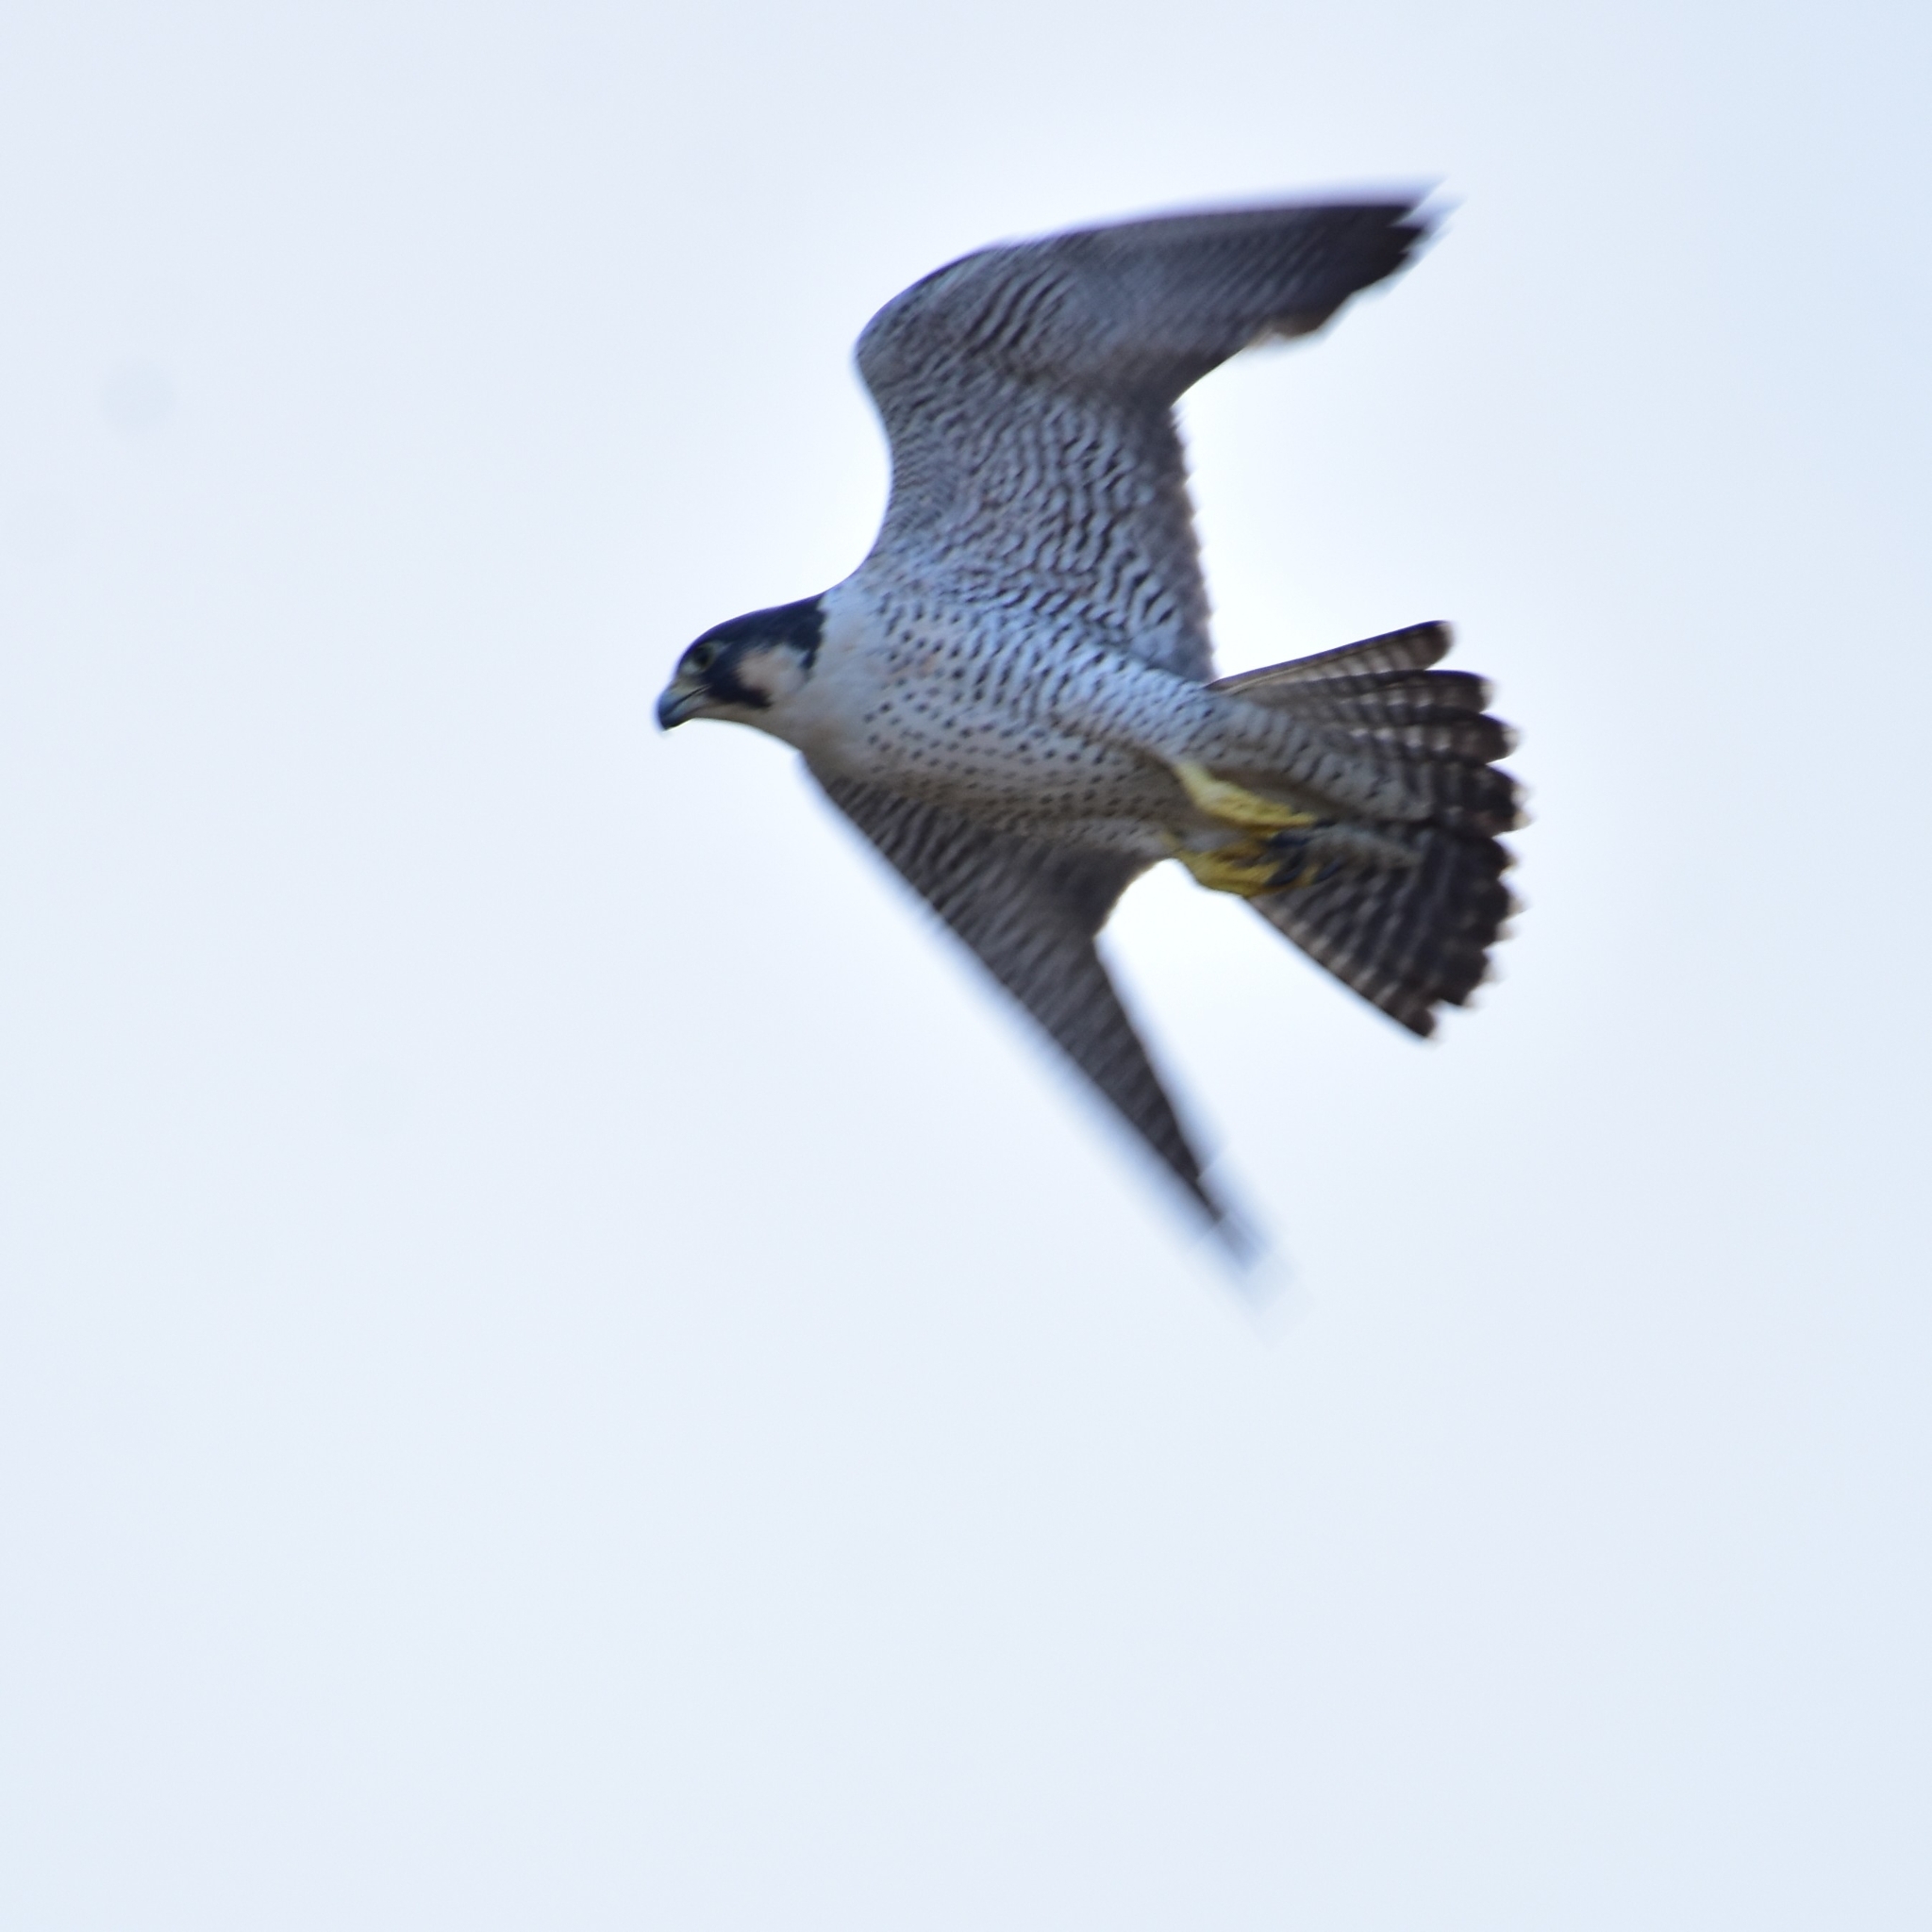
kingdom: Animalia
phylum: Chordata
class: Aves
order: Falconiformes
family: Falconidae
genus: Falco
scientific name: Falco peregrinus
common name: Peregrine falcon
